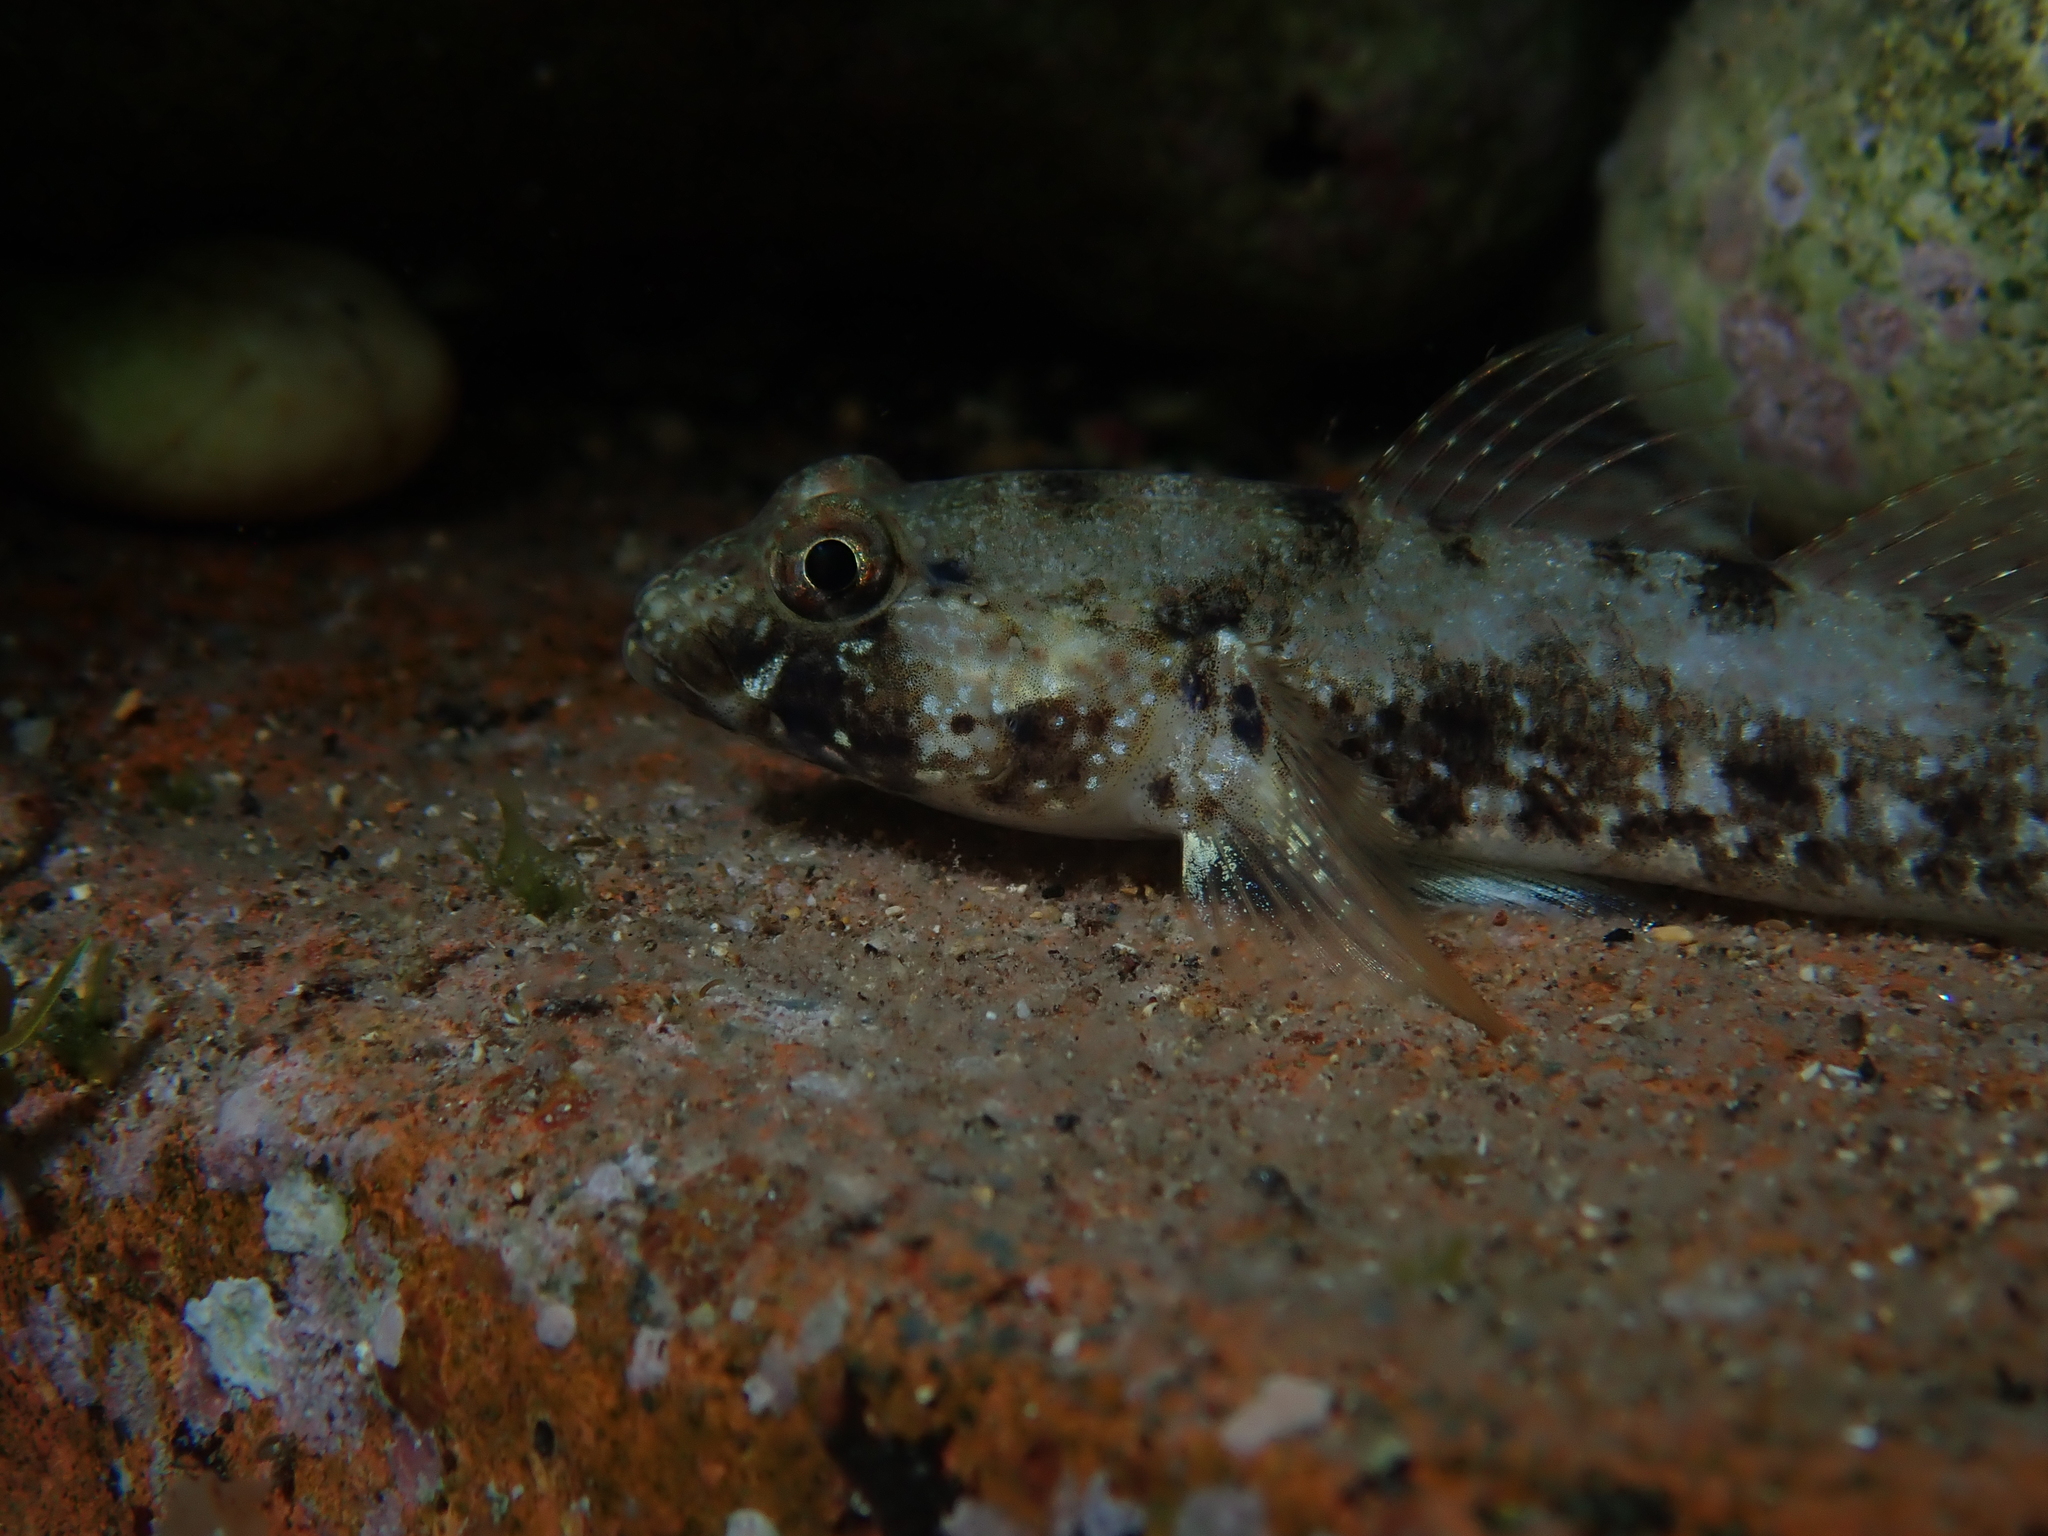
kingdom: Animalia
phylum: Chordata
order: Perciformes
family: Gobiidae
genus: Gobius
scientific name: Gobius incognitus
